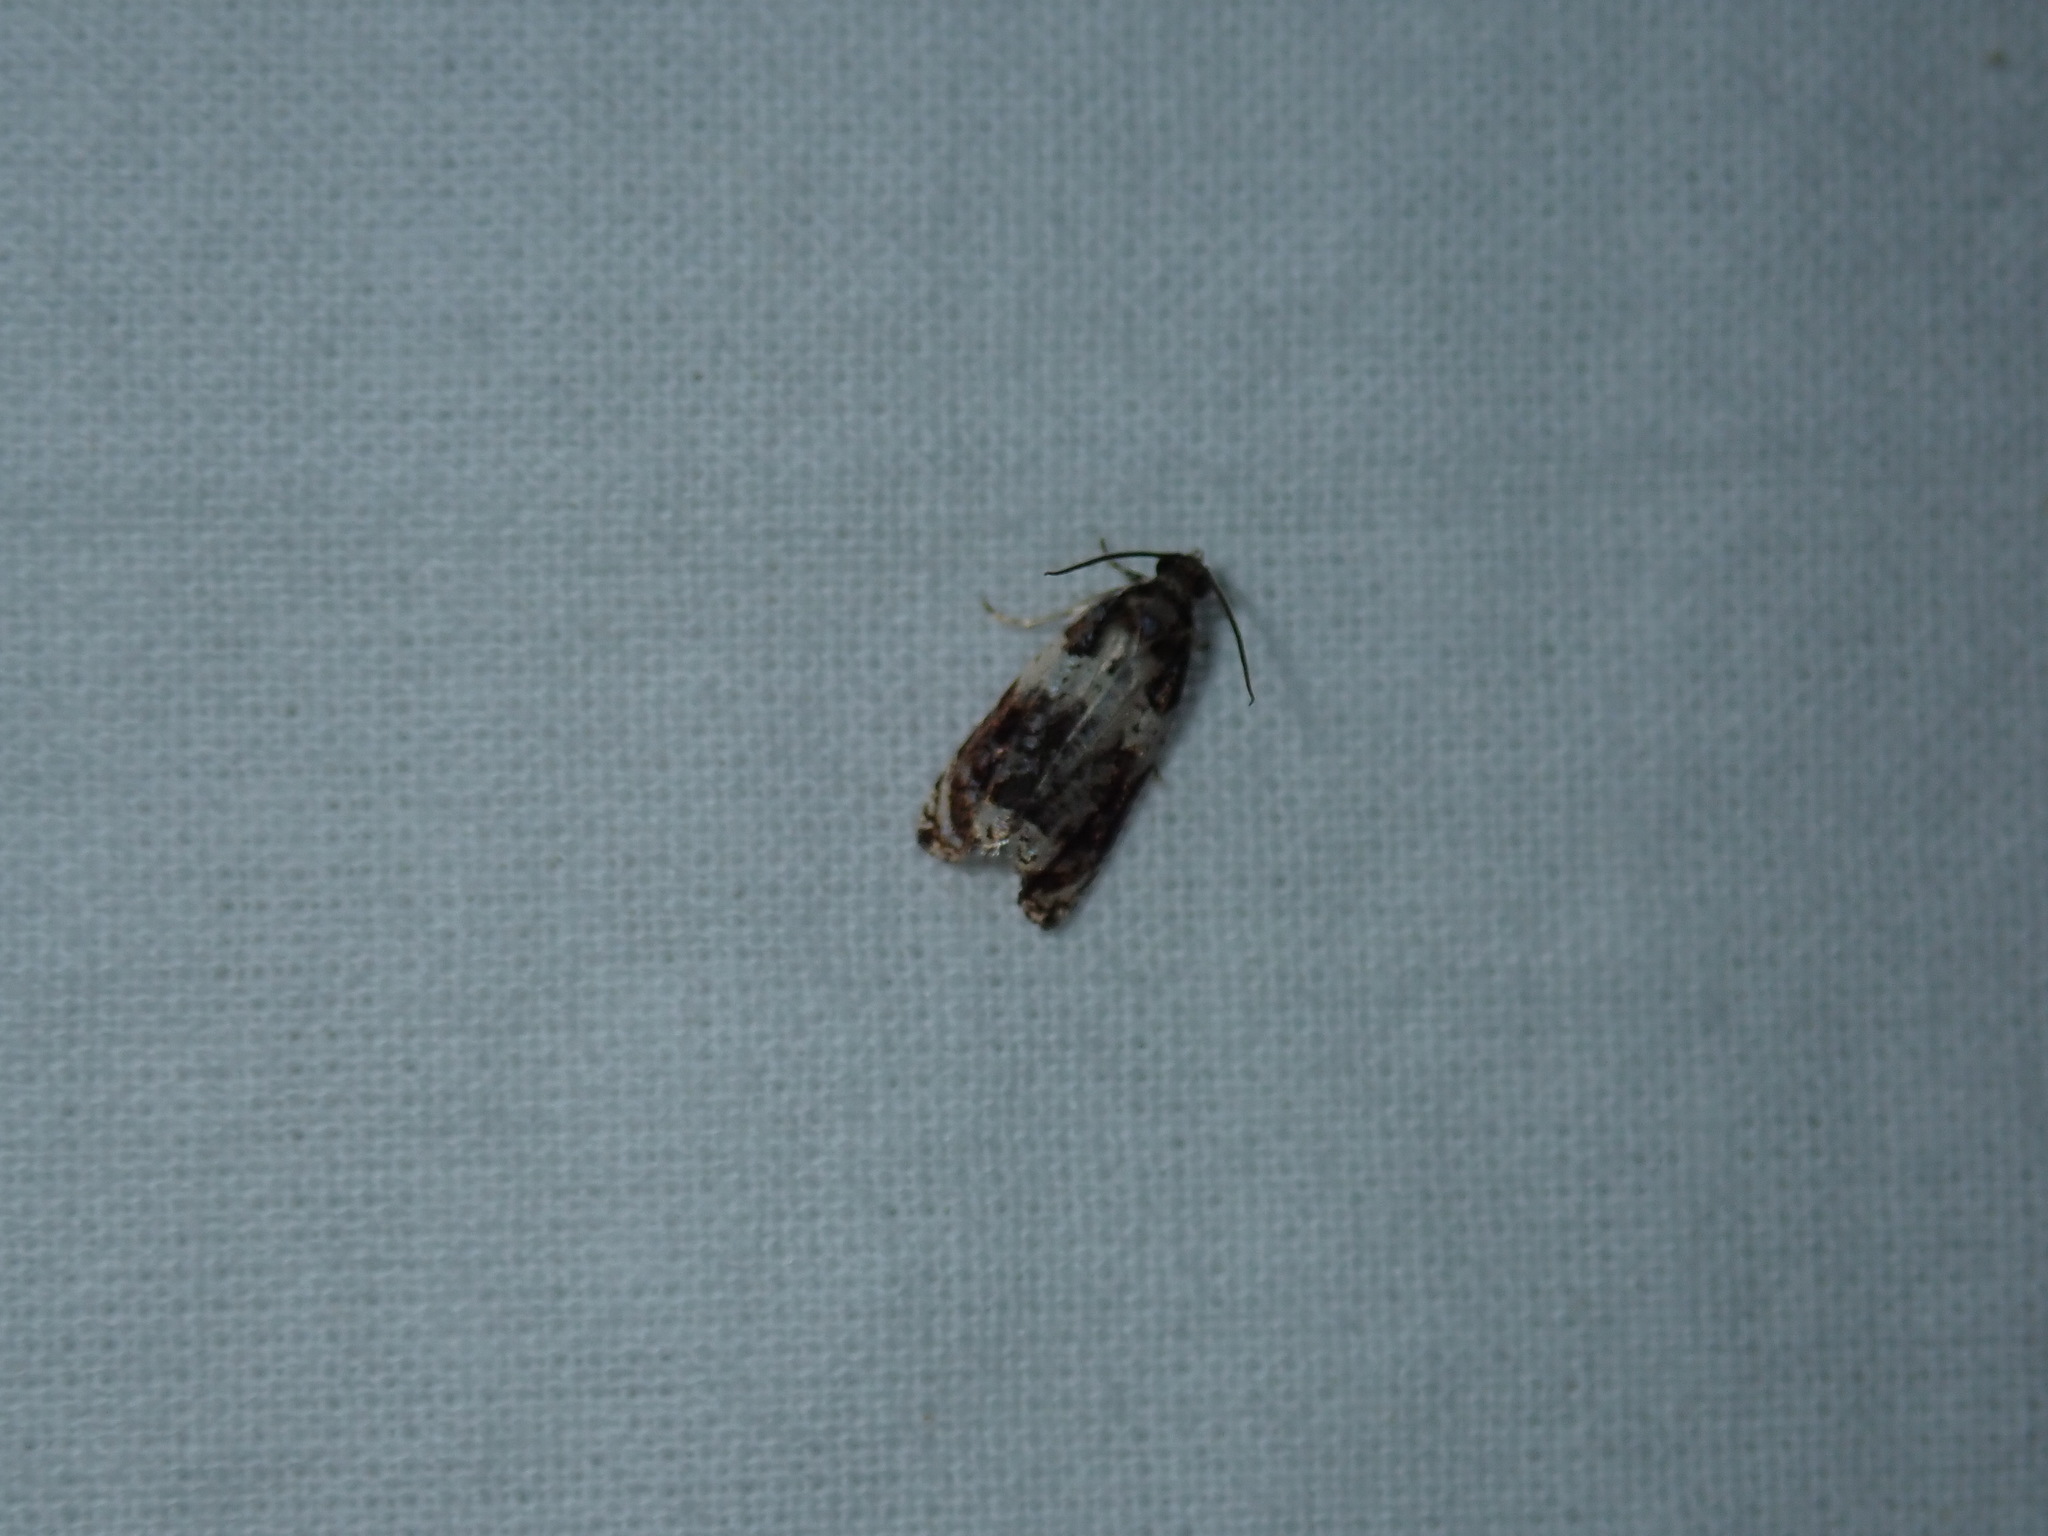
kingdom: Animalia
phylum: Arthropoda
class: Insecta
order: Lepidoptera
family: Tortricidae
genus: Olethreutes
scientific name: Olethreutes fasciatana
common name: Banded olethreutes moth
